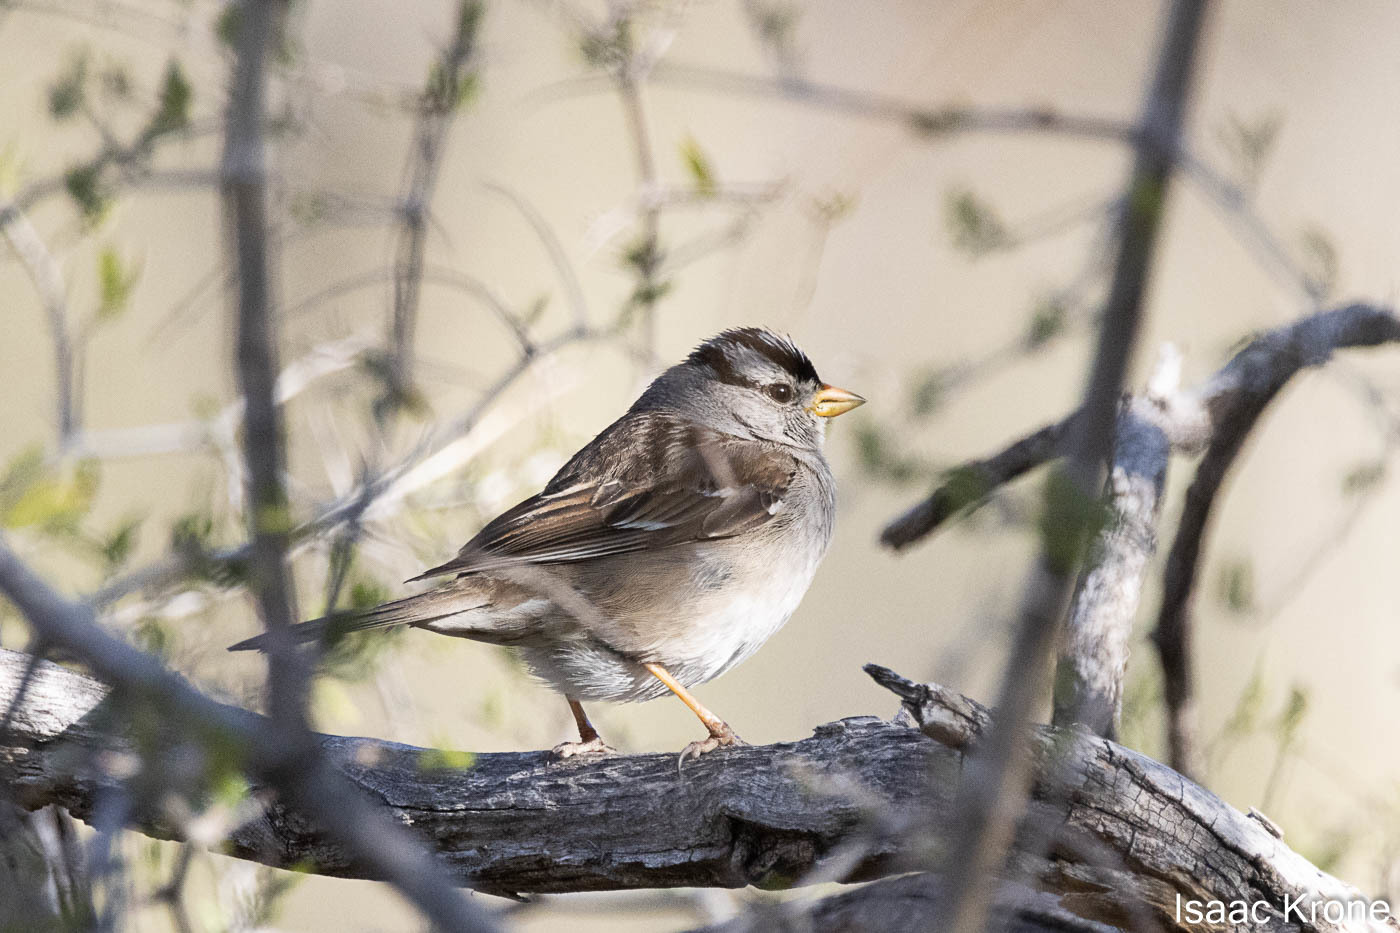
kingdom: Animalia
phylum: Chordata
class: Aves
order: Passeriformes
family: Passerellidae
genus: Zonotrichia
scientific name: Zonotrichia leucophrys
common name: White-crowned sparrow
